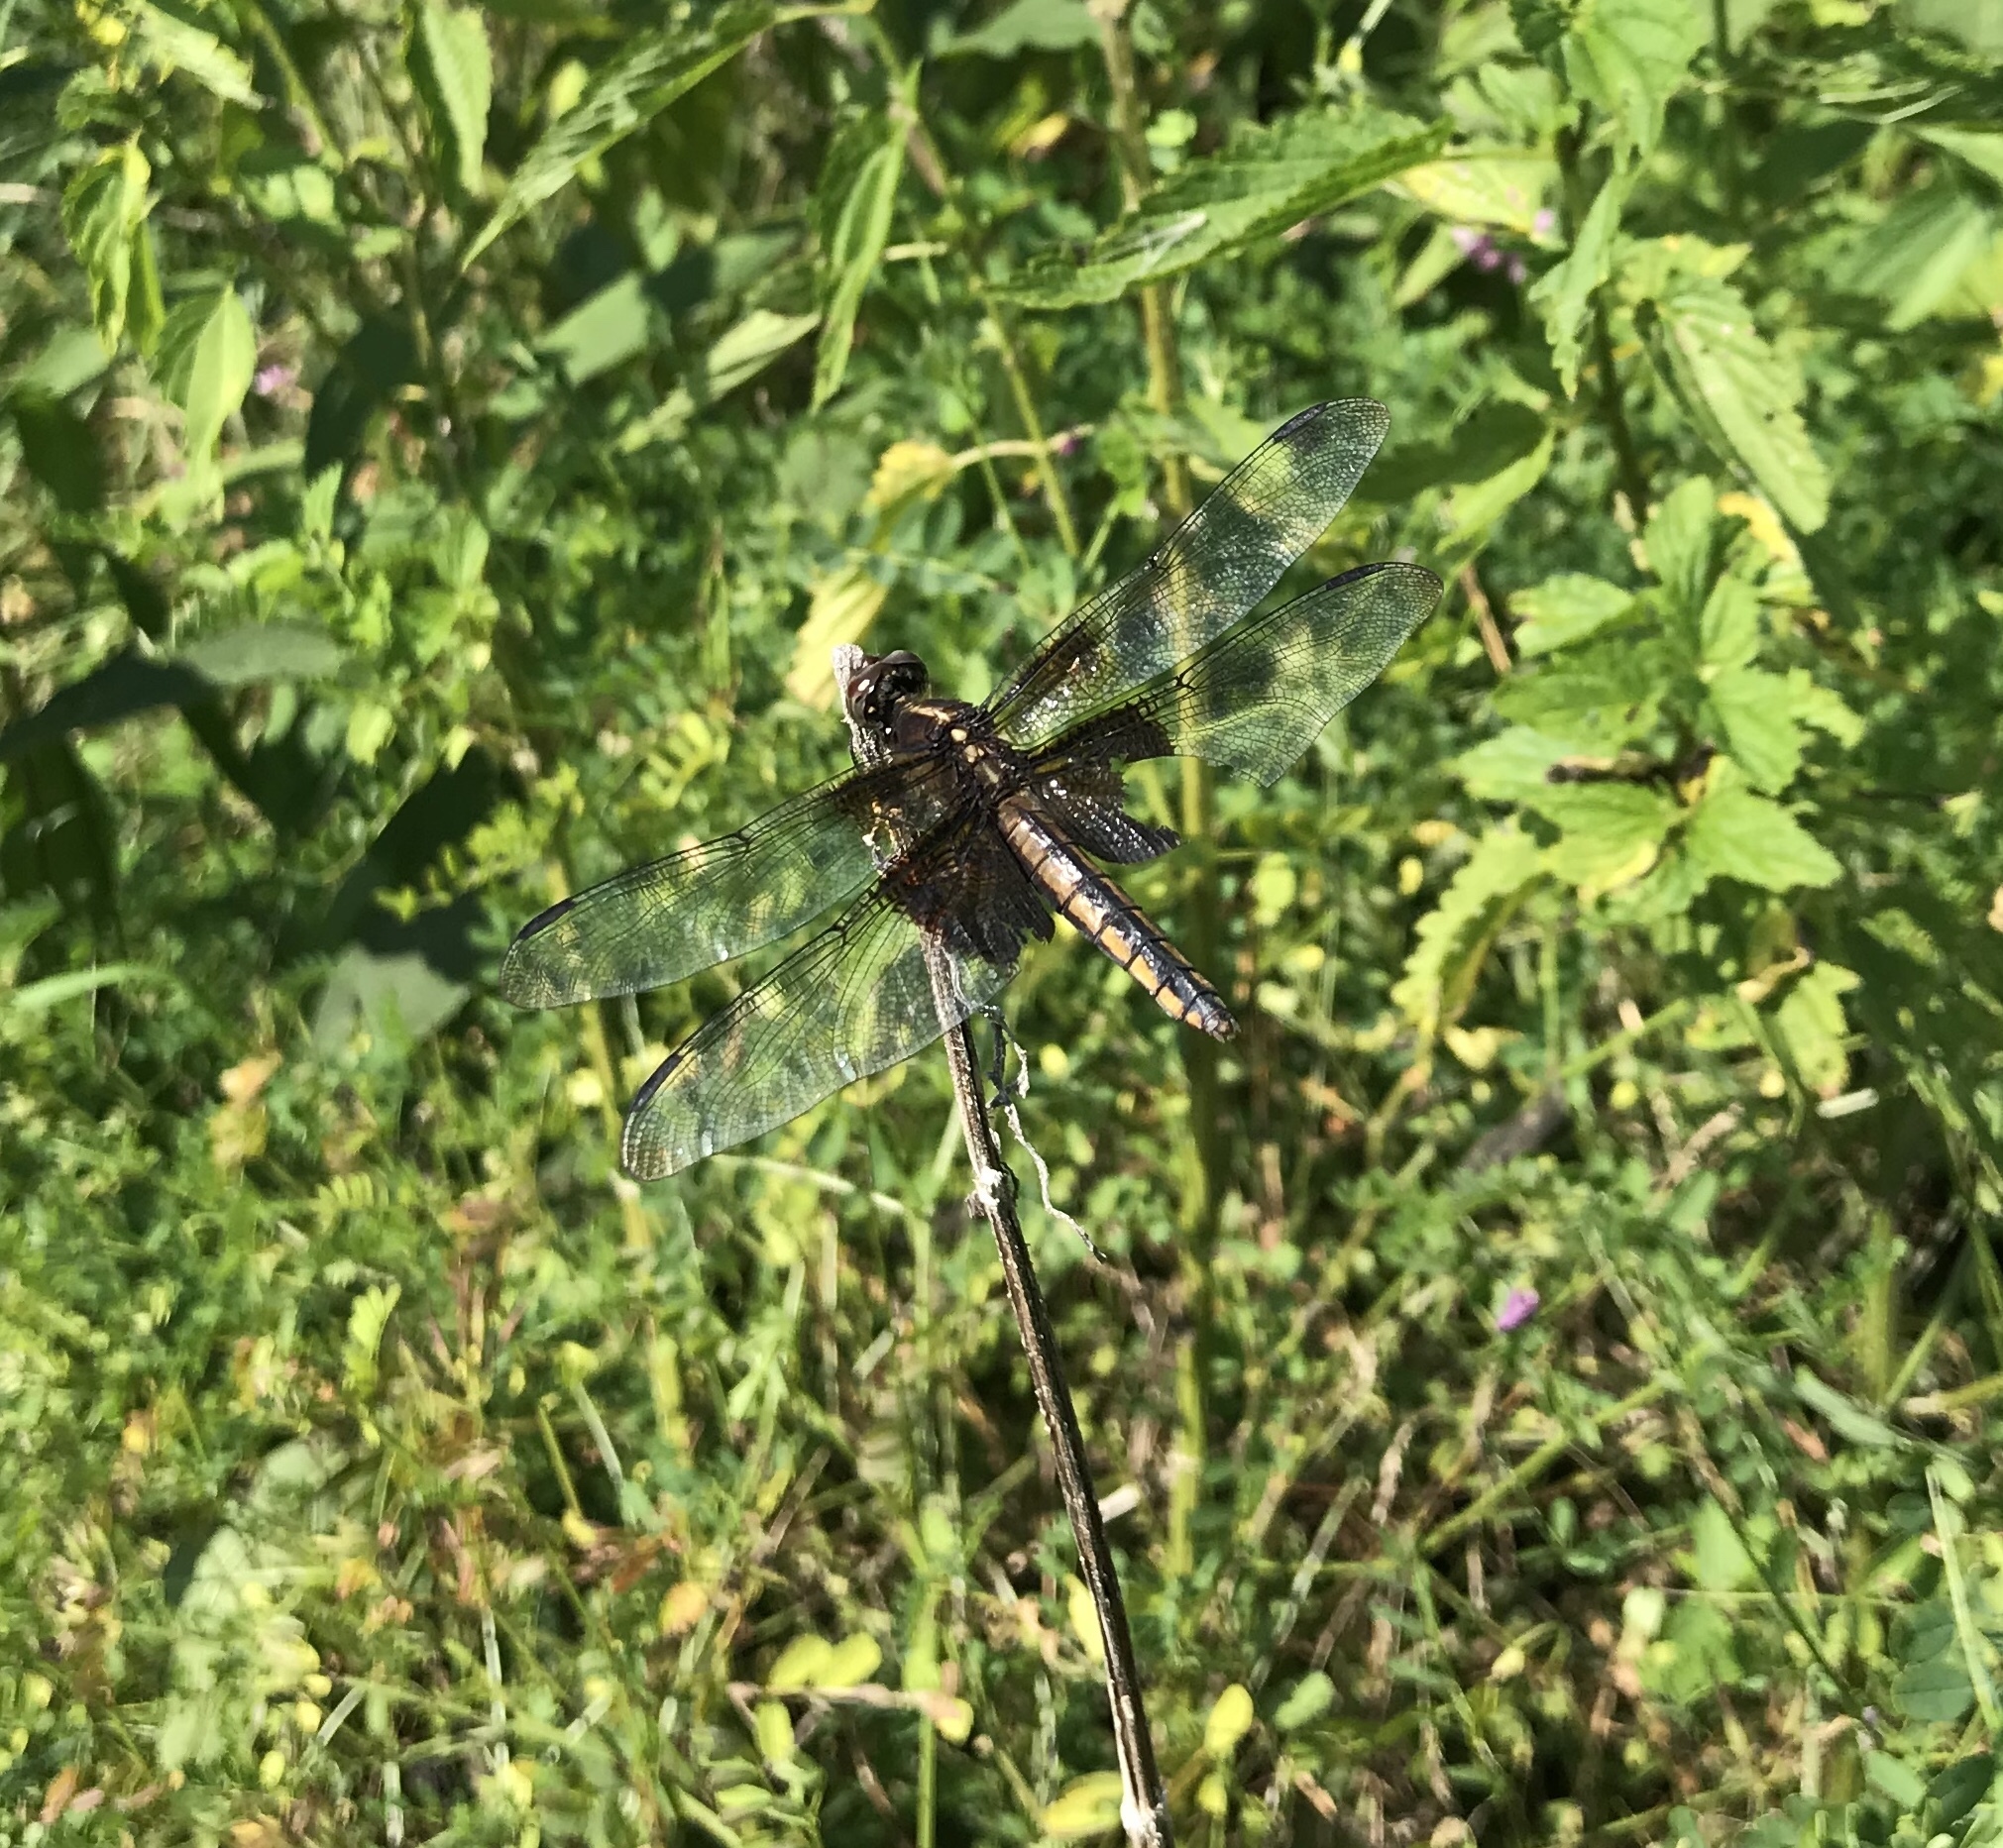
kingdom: Animalia
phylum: Arthropoda
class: Insecta
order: Odonata
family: Libellulidae
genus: Libellula
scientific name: Libellula luctuosa
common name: Widow skimmer
